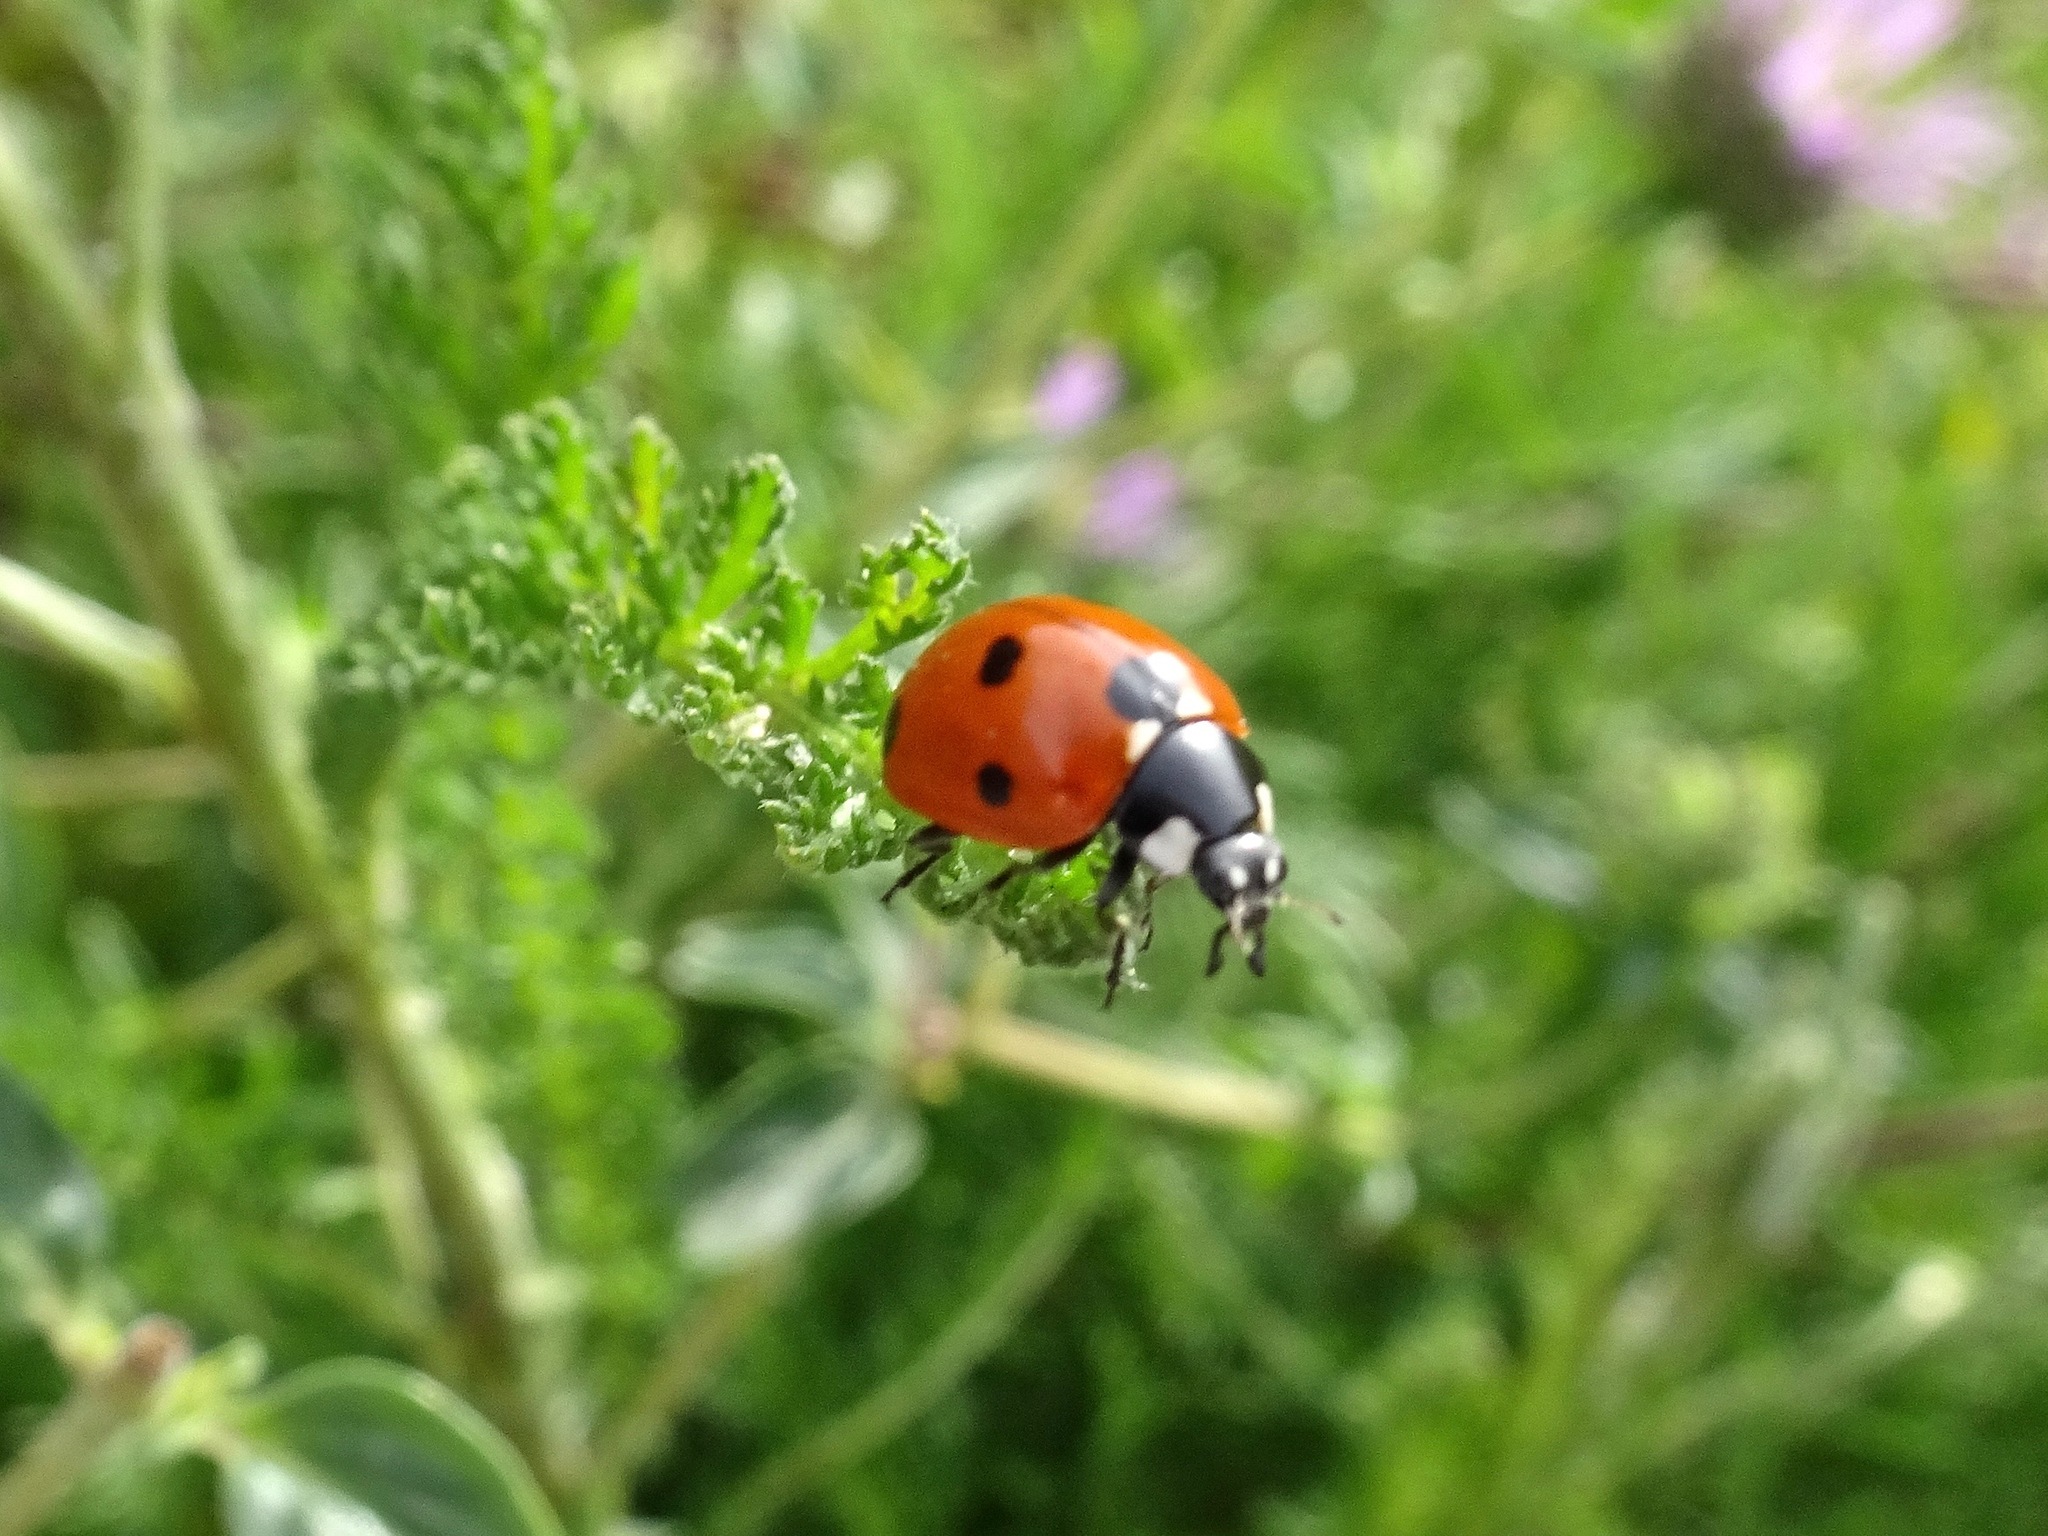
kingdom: Animalia
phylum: Arthropoda
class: Insecta
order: Coleoptera
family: Coccinellidae
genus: Coccinella
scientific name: Coccinella septempunctata
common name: Sevenspotted lady beetle
